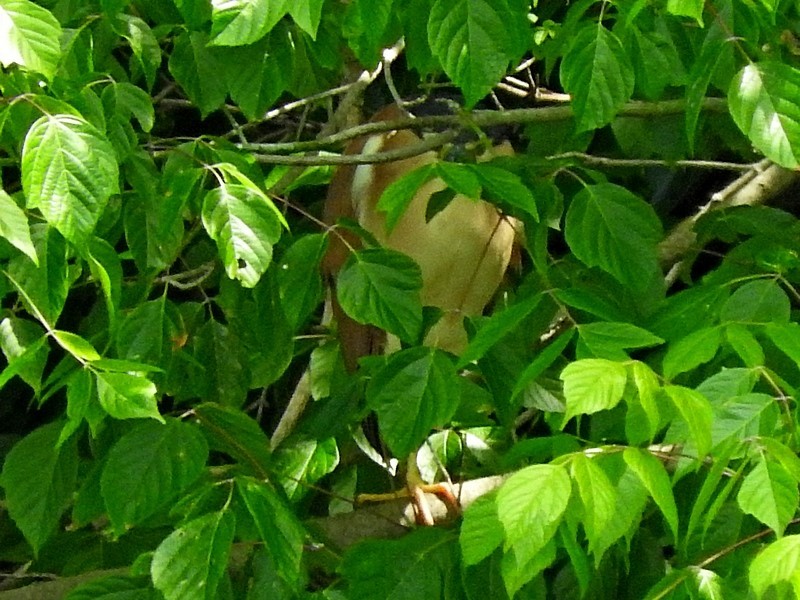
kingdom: Animalia
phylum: Chordata
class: Aves
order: Pelecaniformes
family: Ardeidae
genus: Nycticorax
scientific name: Nycticorax caledonicus
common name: Rufous night-heron
